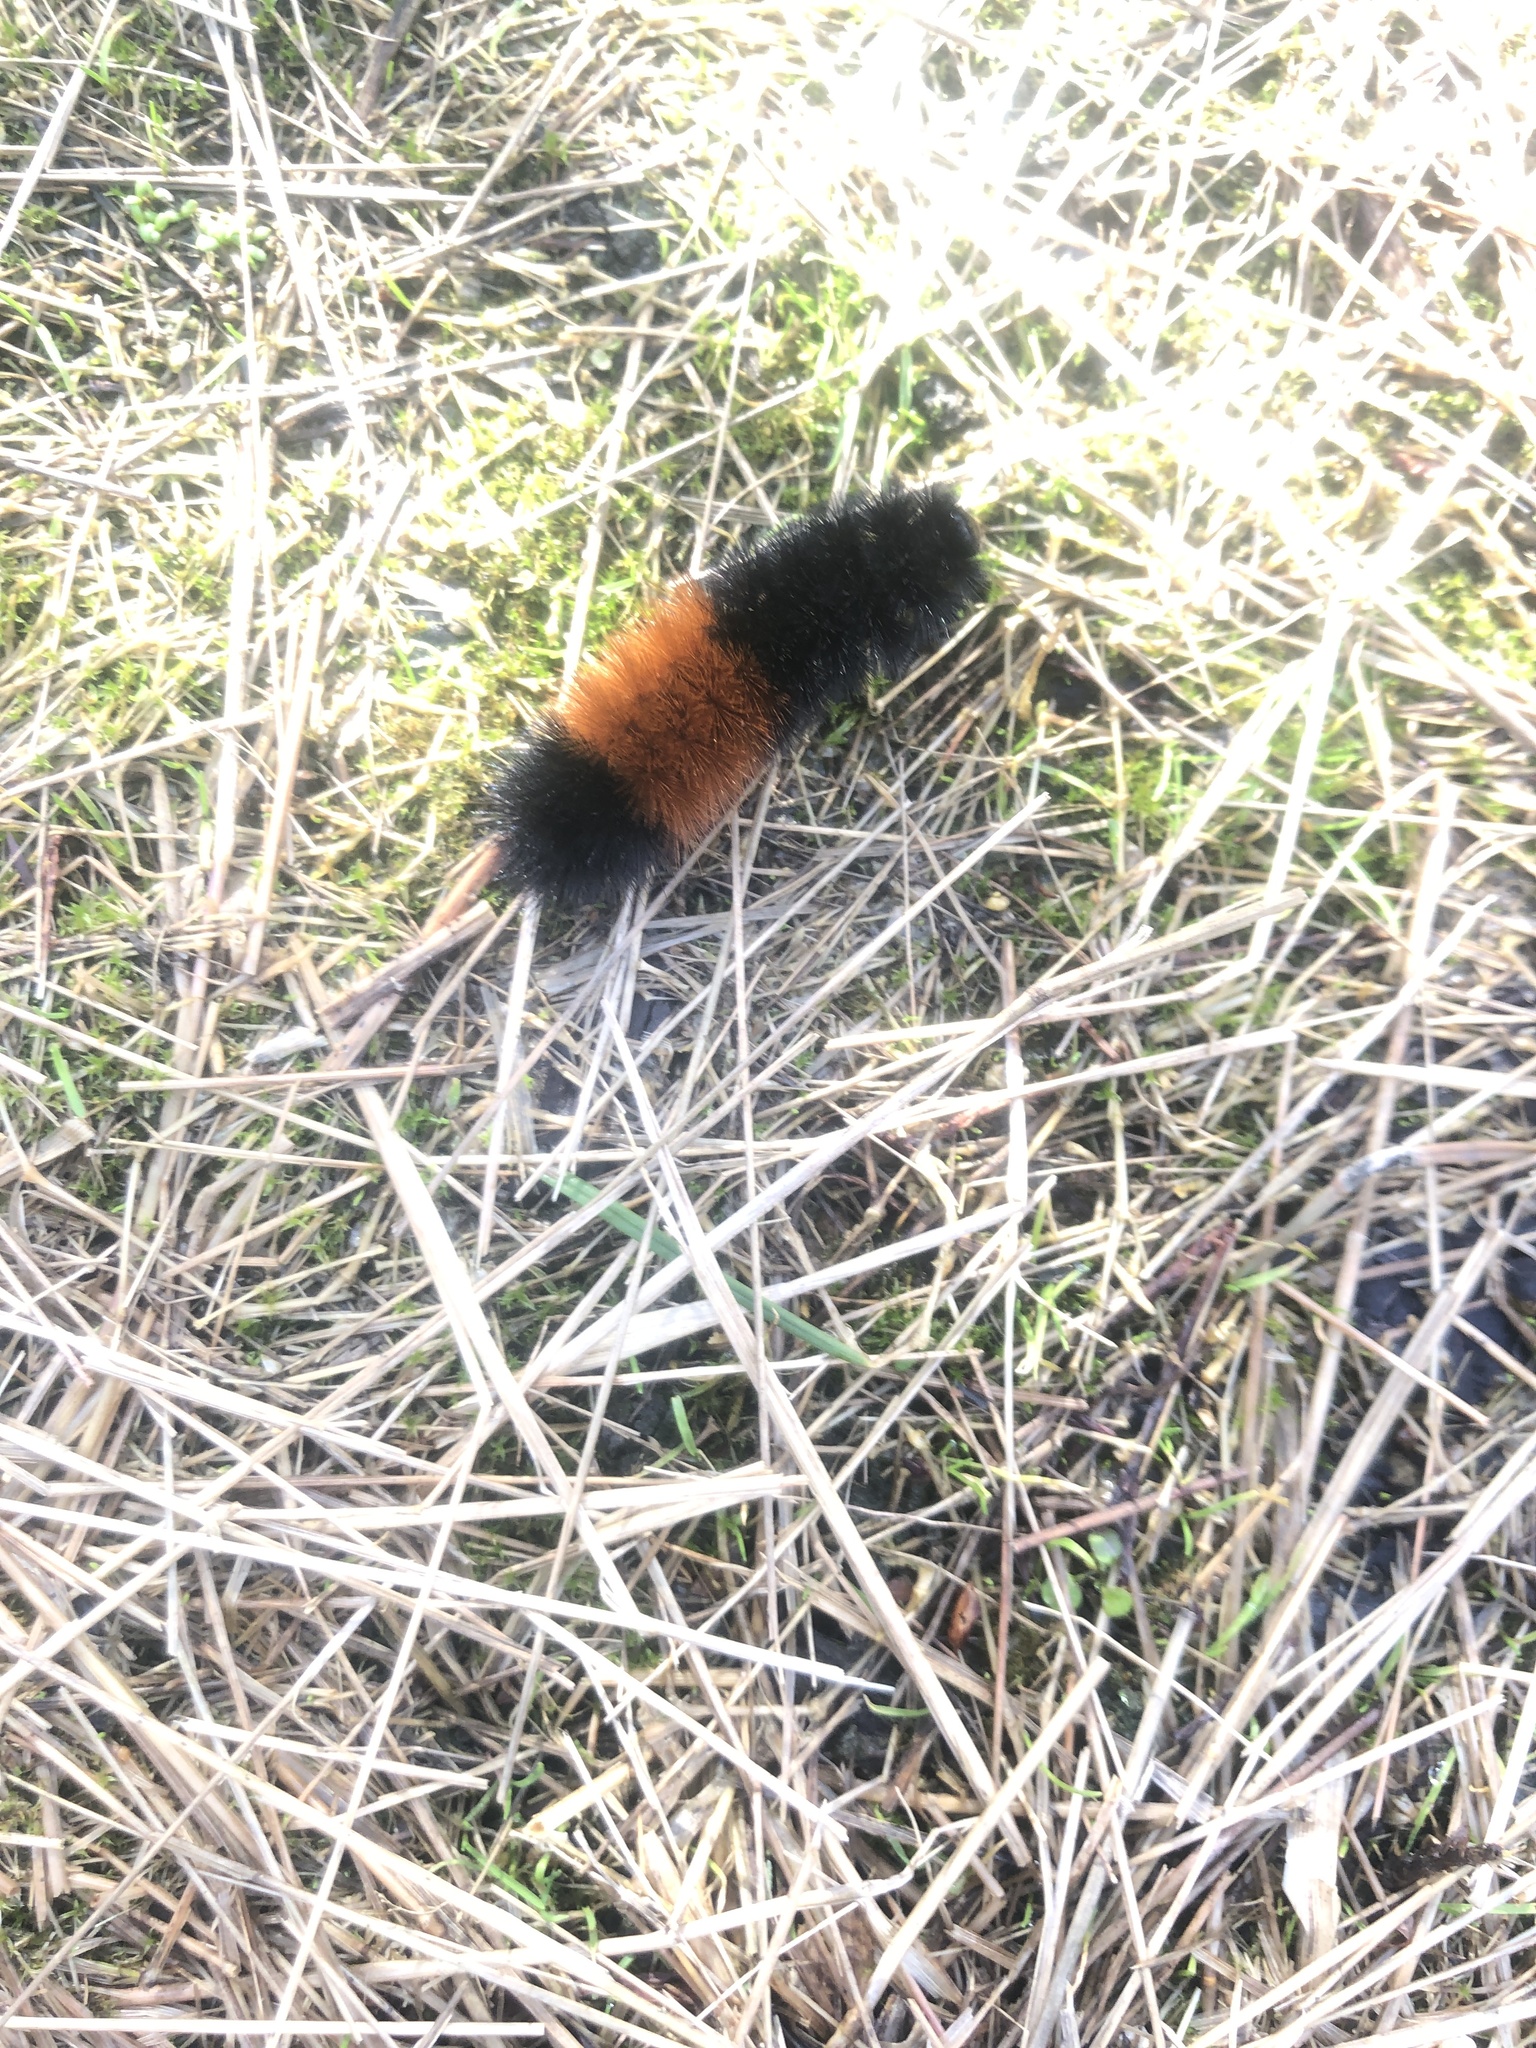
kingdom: Animalia
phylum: Arthropoda
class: Insecta
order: Lepidoptera
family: Erebidae
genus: Pyrrharctia
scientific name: Pyrrharctia isabella
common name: Isabella tiger moth
